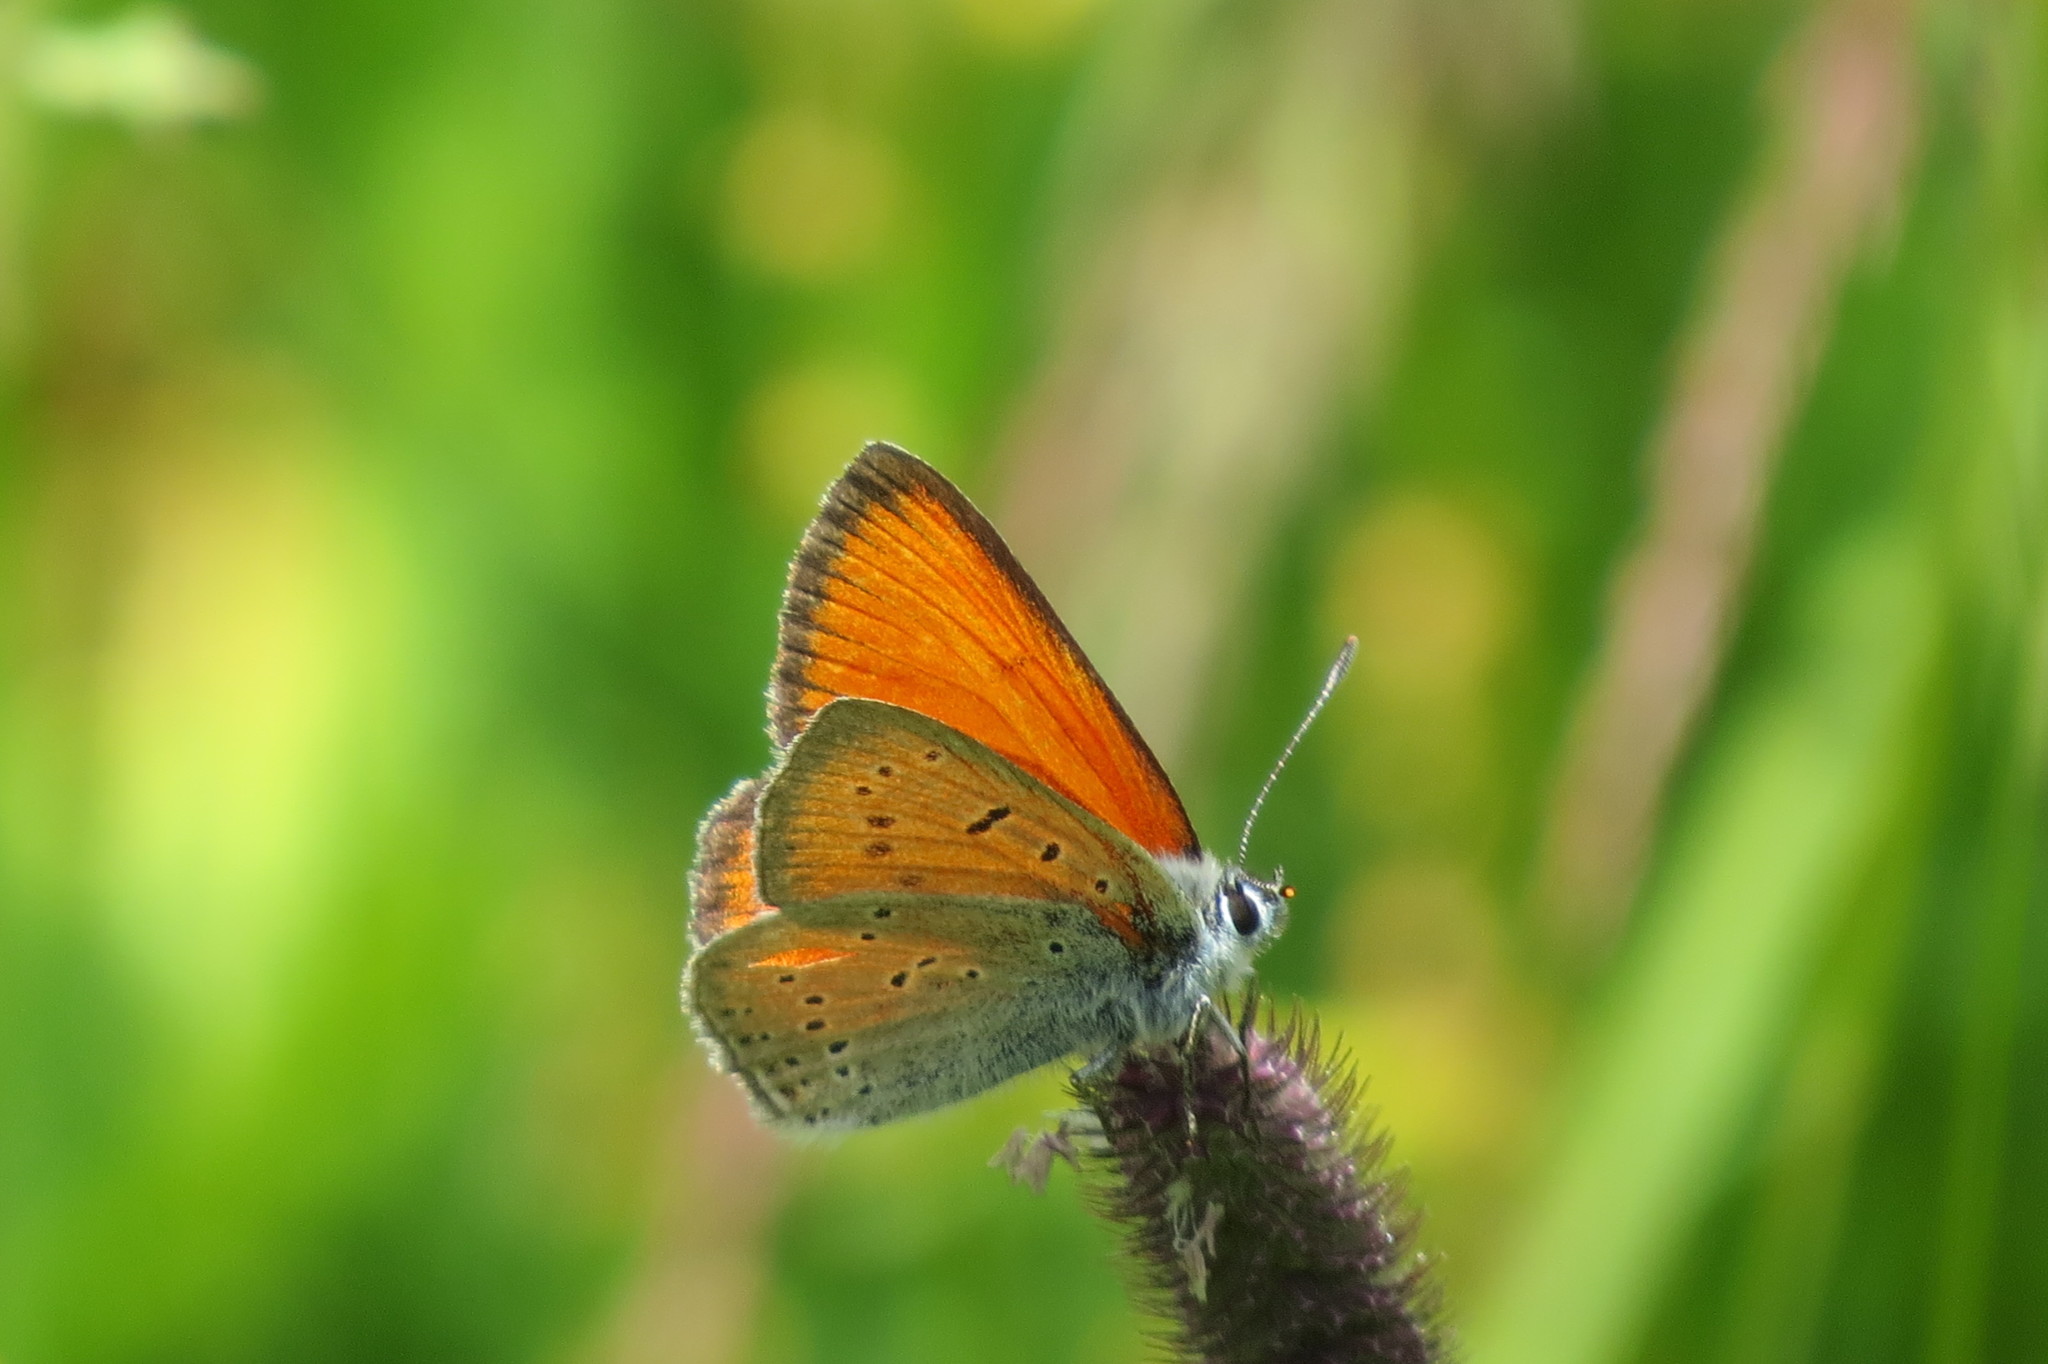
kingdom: Animalia
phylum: Arthropoda
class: Insecta
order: Lepidoptera
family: Lycaenidae
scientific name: Lycaenidae
